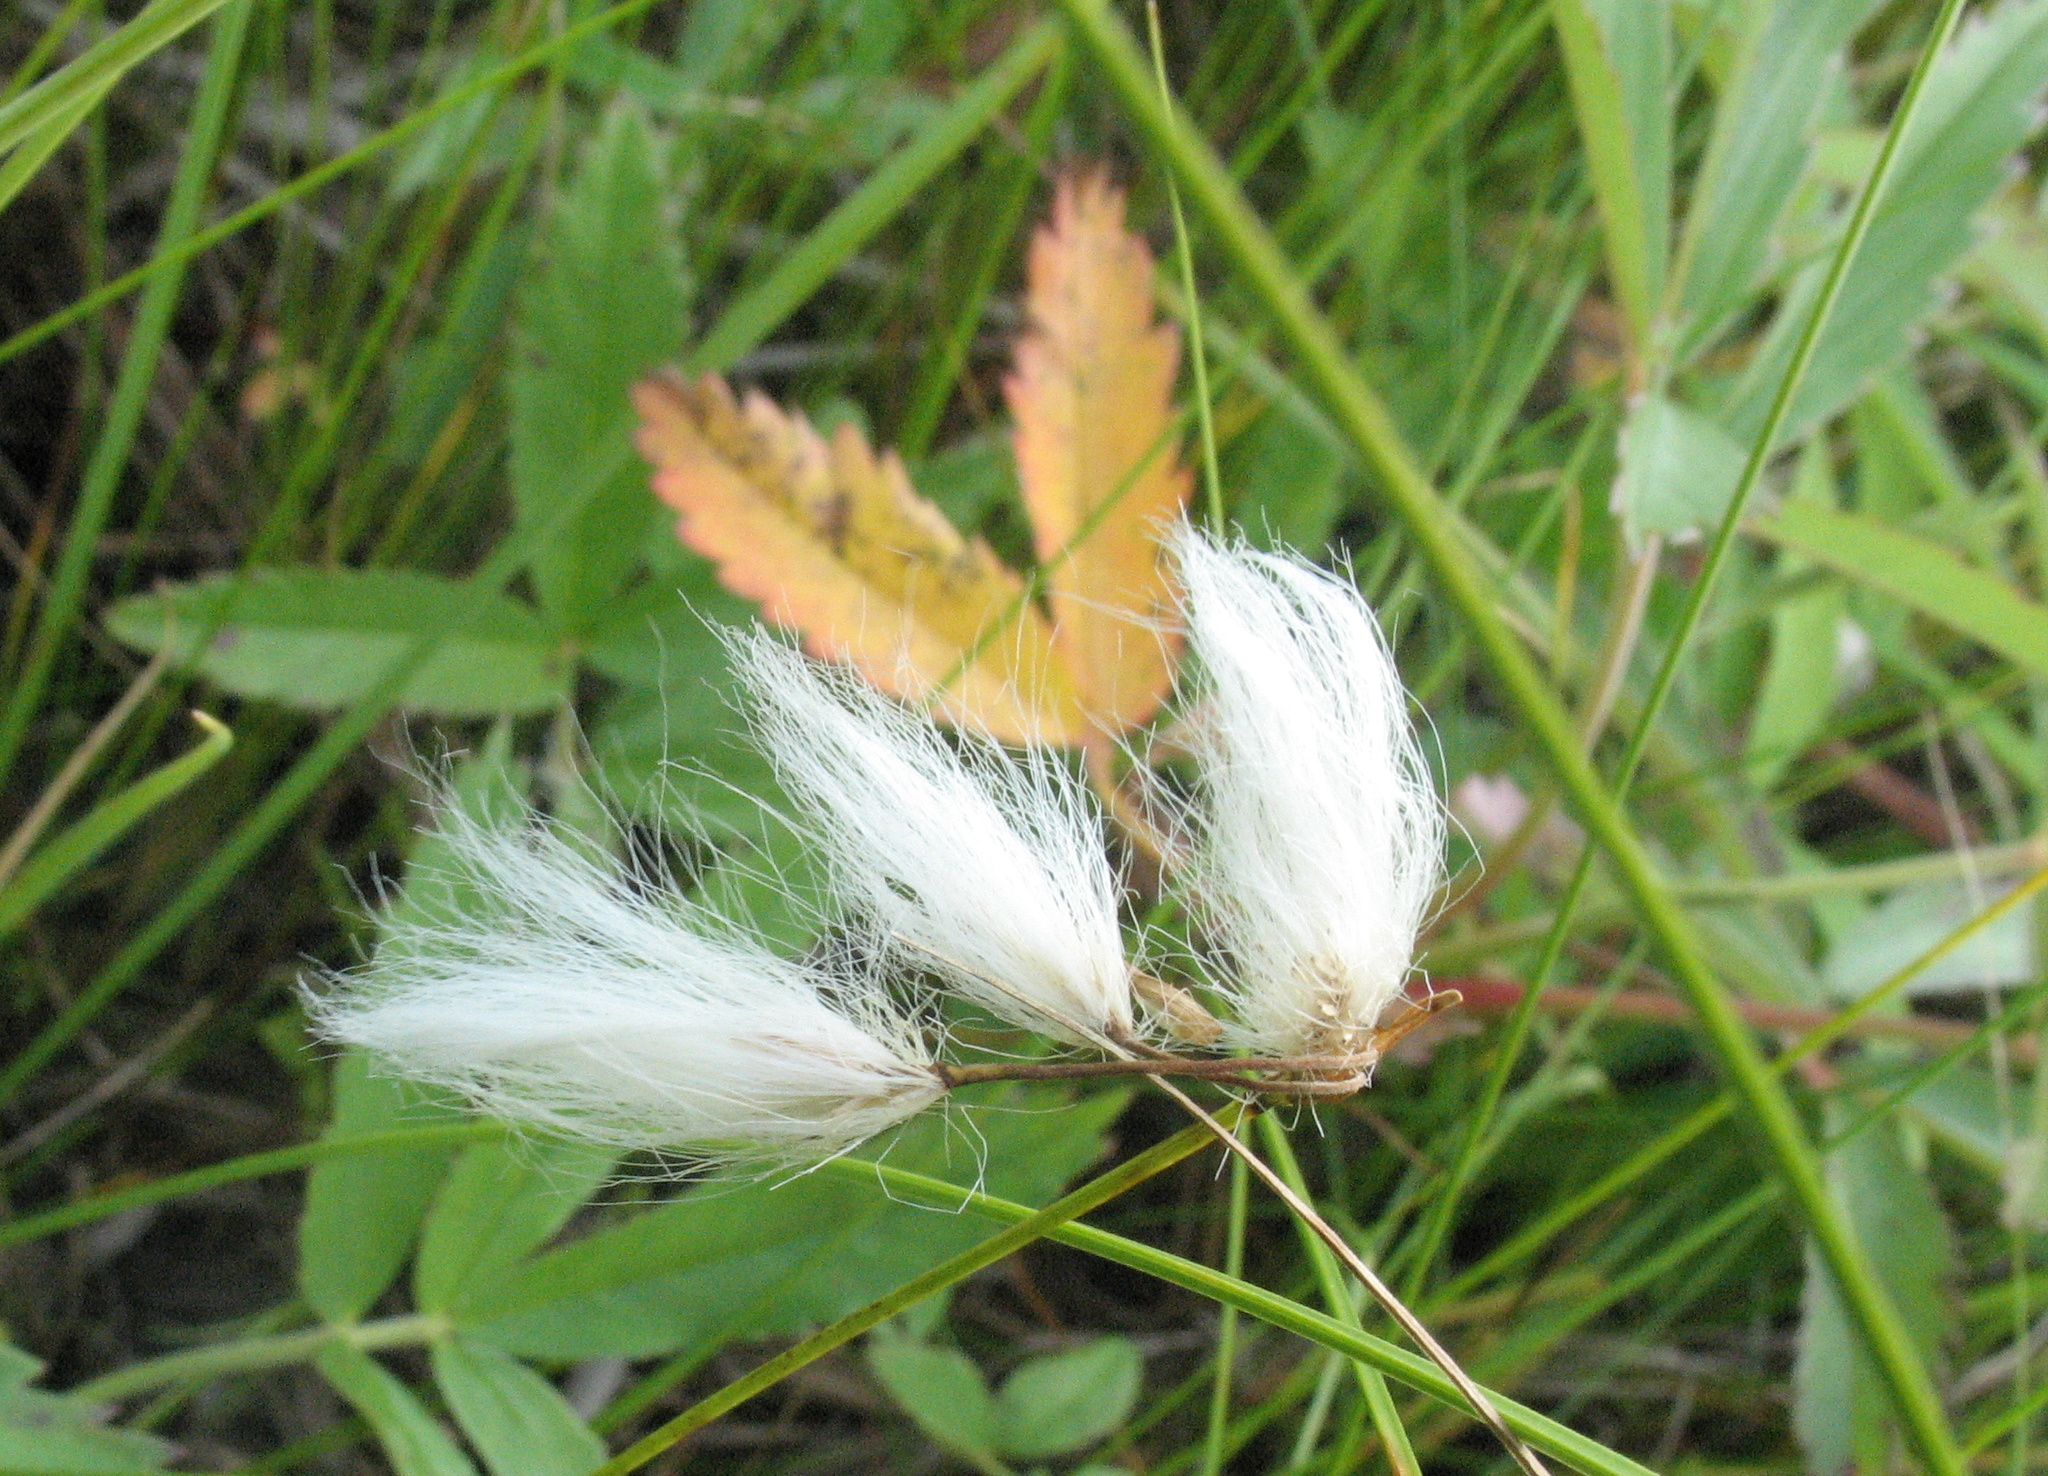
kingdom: Plantae
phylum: Tracheophyta
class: Liliopsida
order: Poales
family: Cyperaceae
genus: Eriophorum
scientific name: Eriophorum gracile
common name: Slender cottongrass
